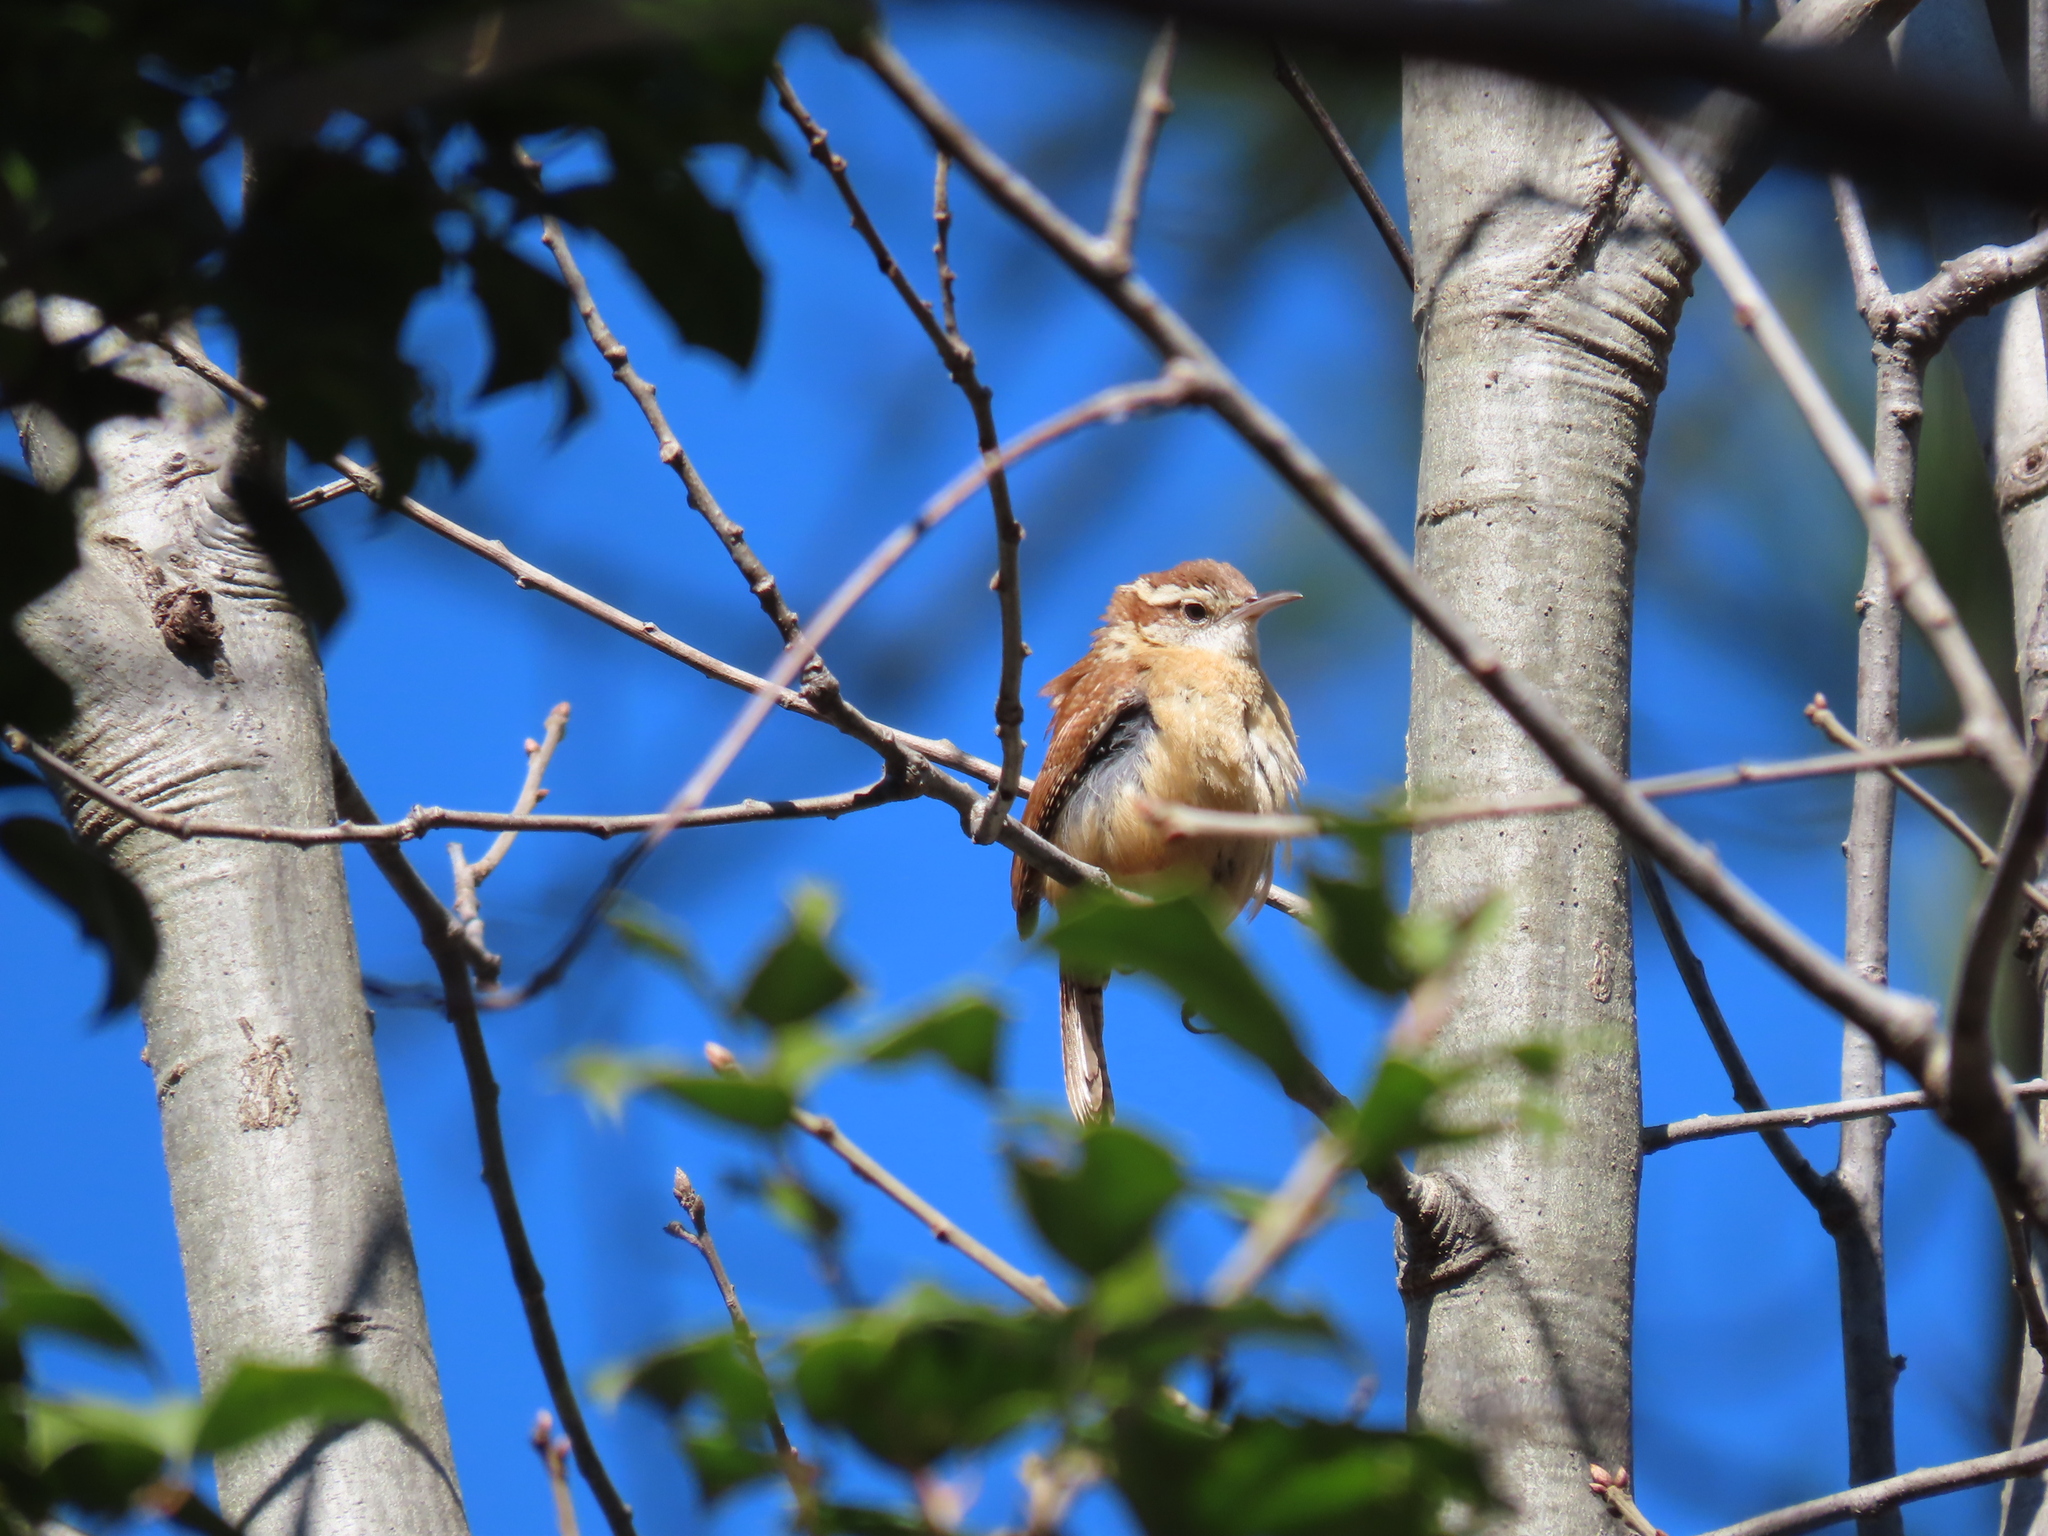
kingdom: Animalia
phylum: Chordata
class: Aves
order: Passeriformes
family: Troglodytidae
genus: Thryothorus
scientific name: Thryothorus ludovicianus
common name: Carolina wren
